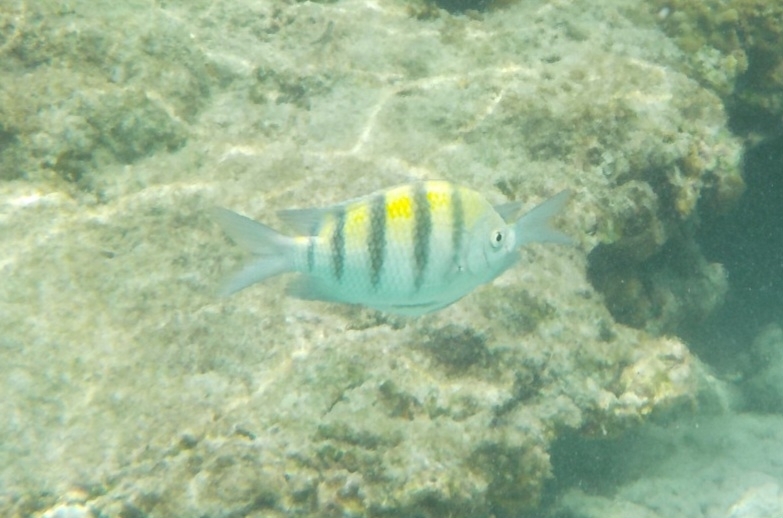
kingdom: Animalia
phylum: Chordata
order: Perciformes
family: Pomacentridae
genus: Abudefduf
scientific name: Abudefduf saxatilis
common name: Sergeant major
